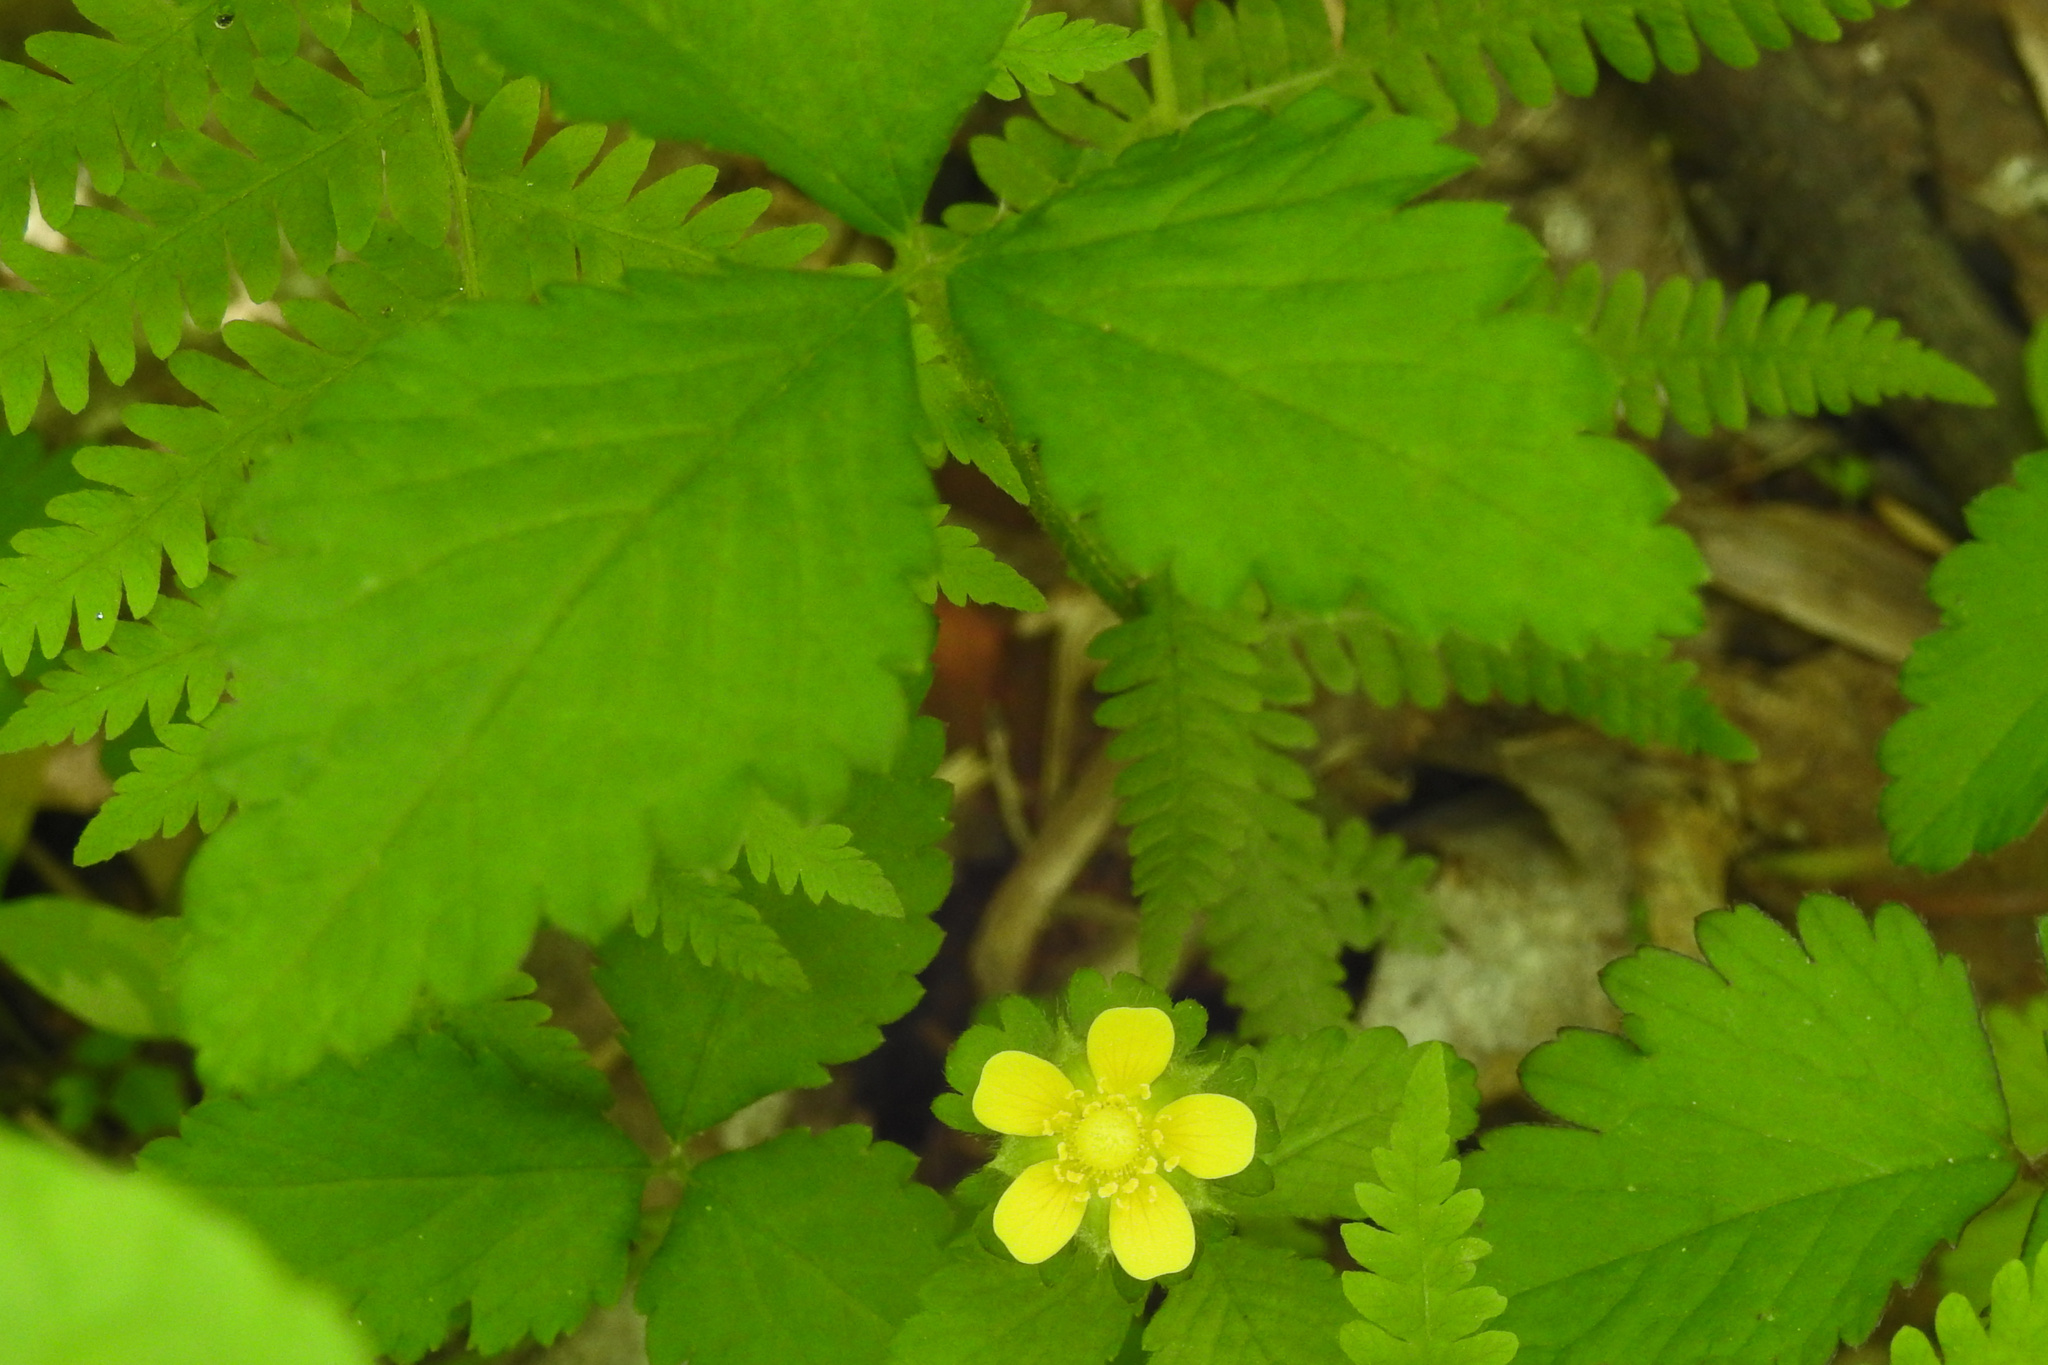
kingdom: Plantae
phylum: Tracheophyta
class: Magnoliopsida
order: Rosales
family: Rosaceae
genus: Potentilla
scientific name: Potentilla indica
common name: Yellow-flowered strawberry
